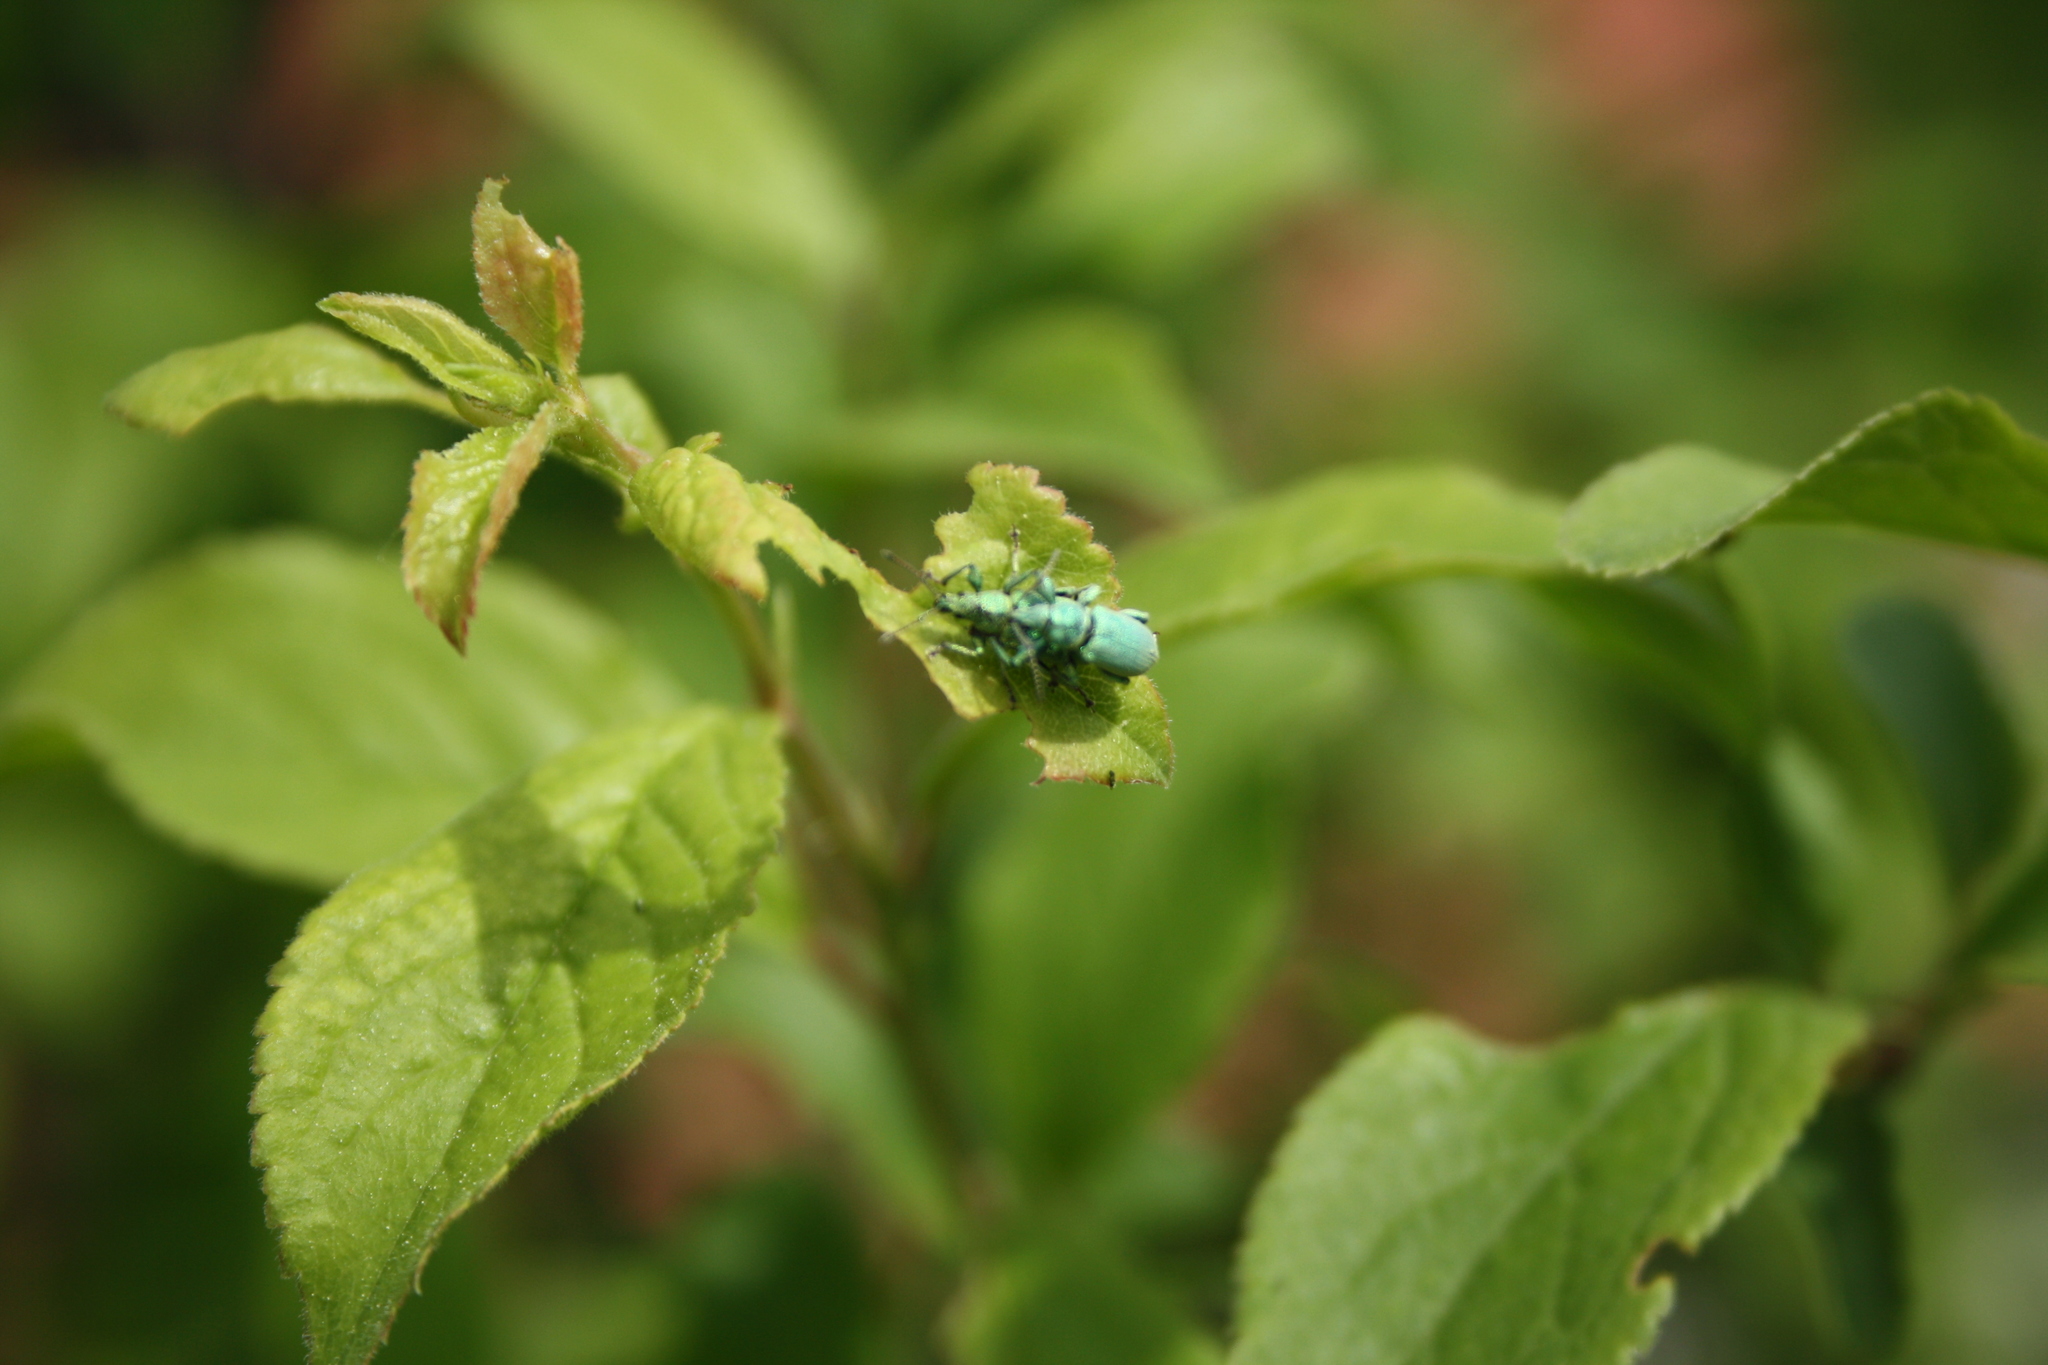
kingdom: Animalia
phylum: Arthropoda
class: Insecta
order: Coleoptera
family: Curculionidae
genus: Phyllobius
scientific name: Phyllobius maculicornis
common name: Green leaf weevil
